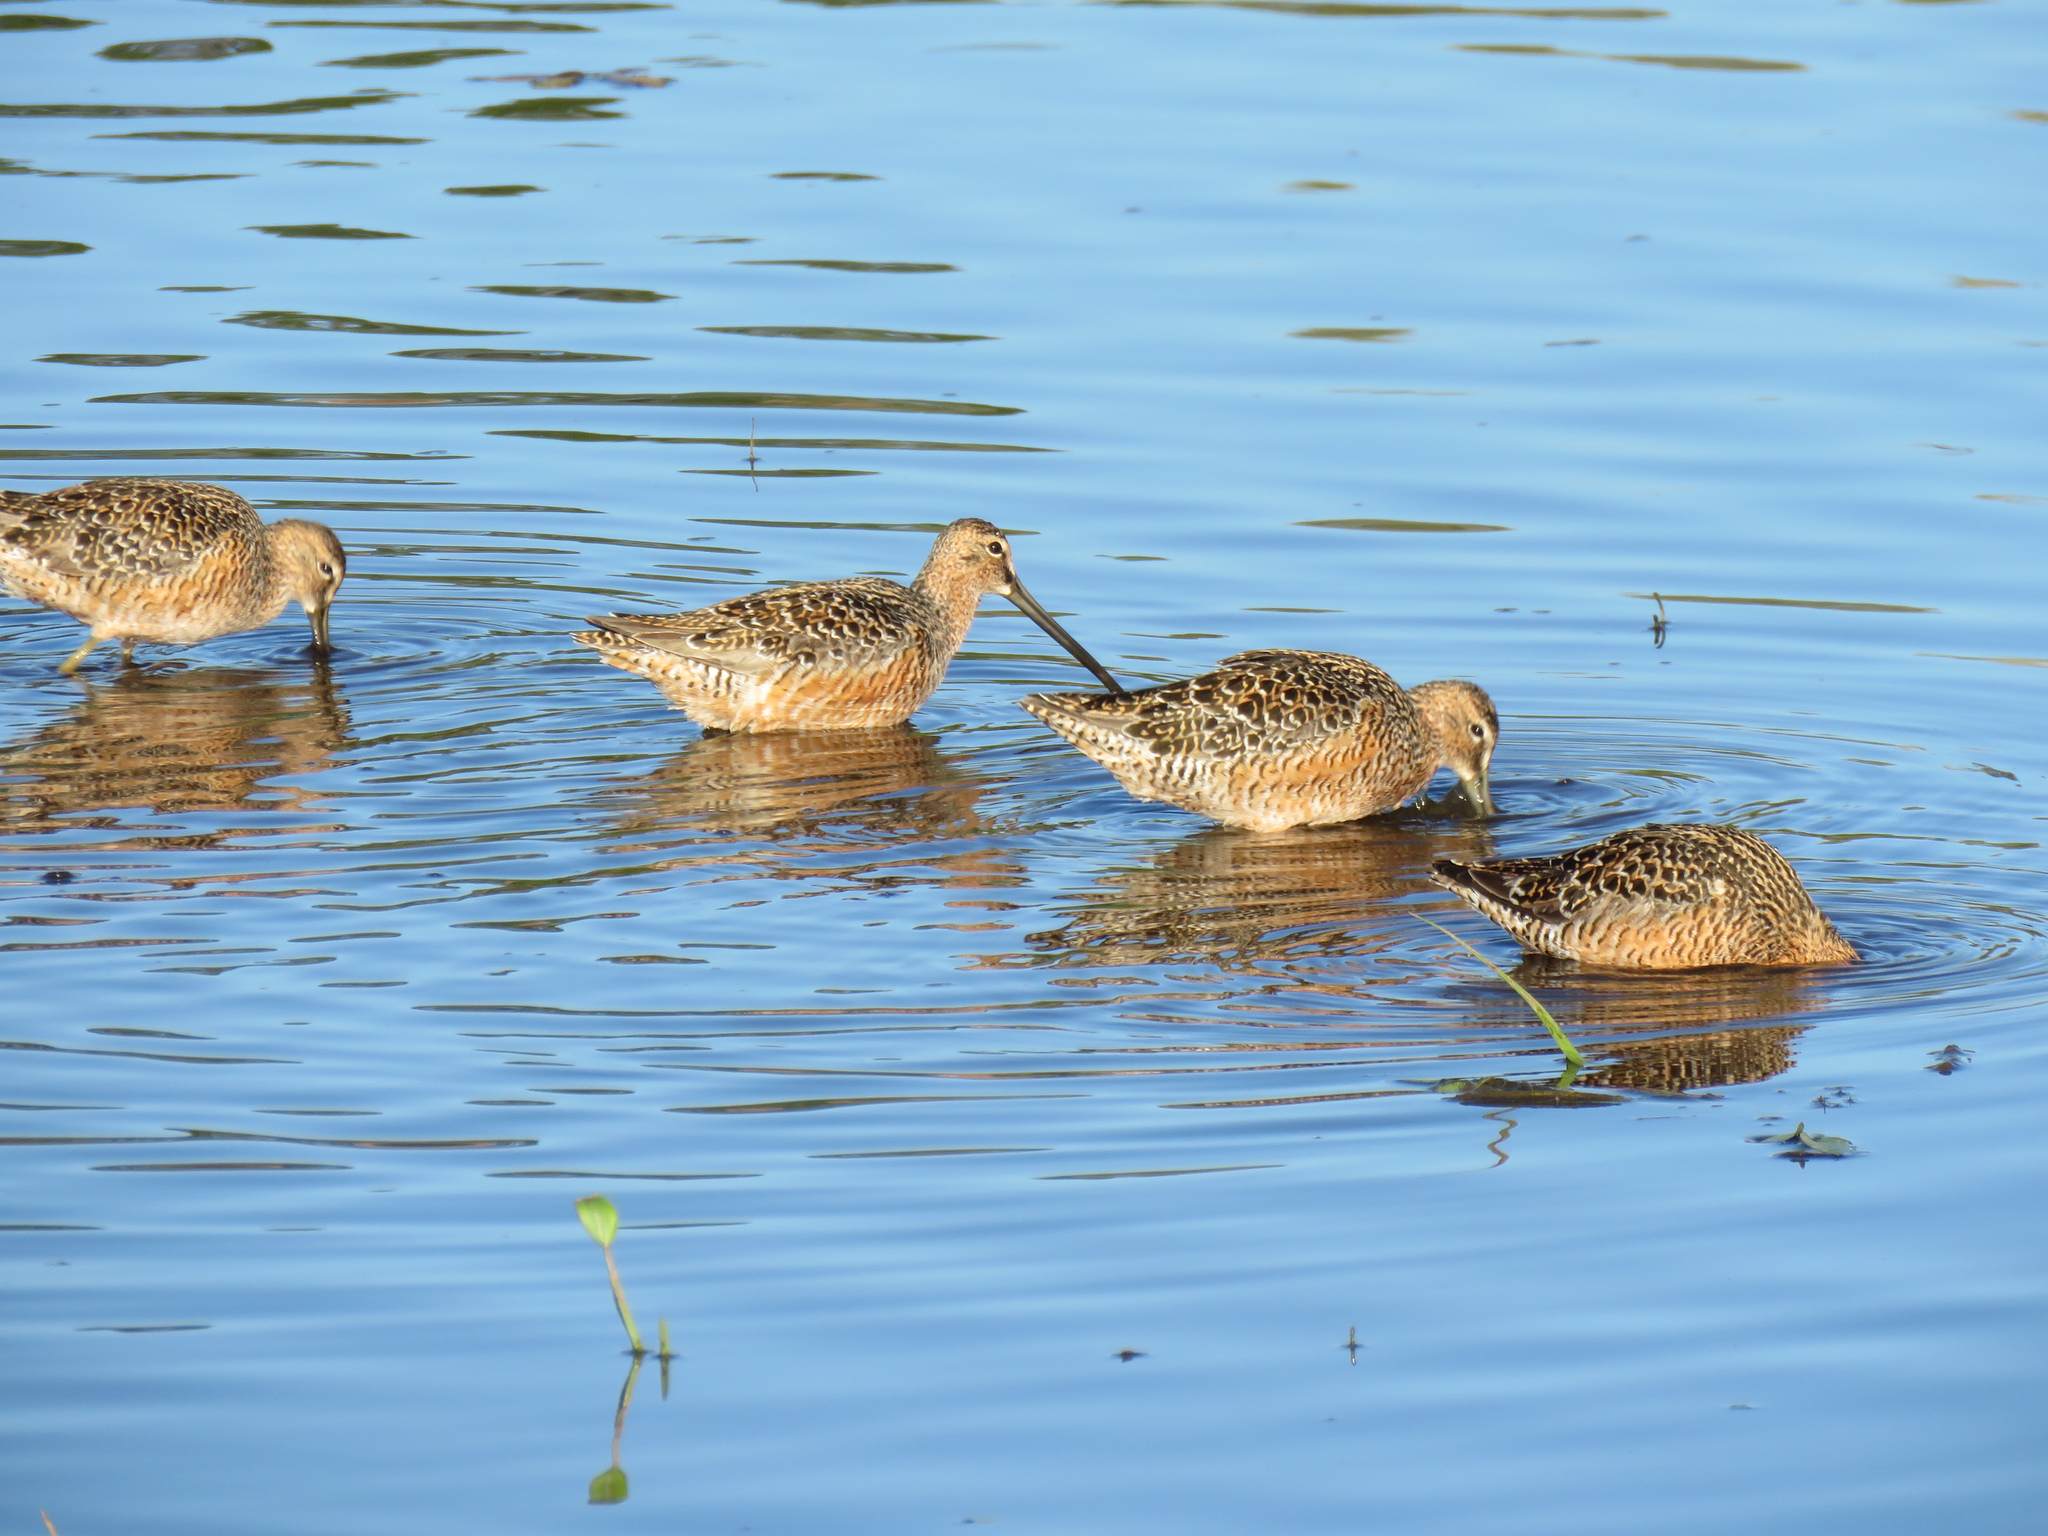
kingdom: Animalia
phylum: Chordata
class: Aves
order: Charadriiformes
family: Scolopacidae
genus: Limnodromus
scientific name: Limnodromus scolopaceus
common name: Long-billed dowitcher
